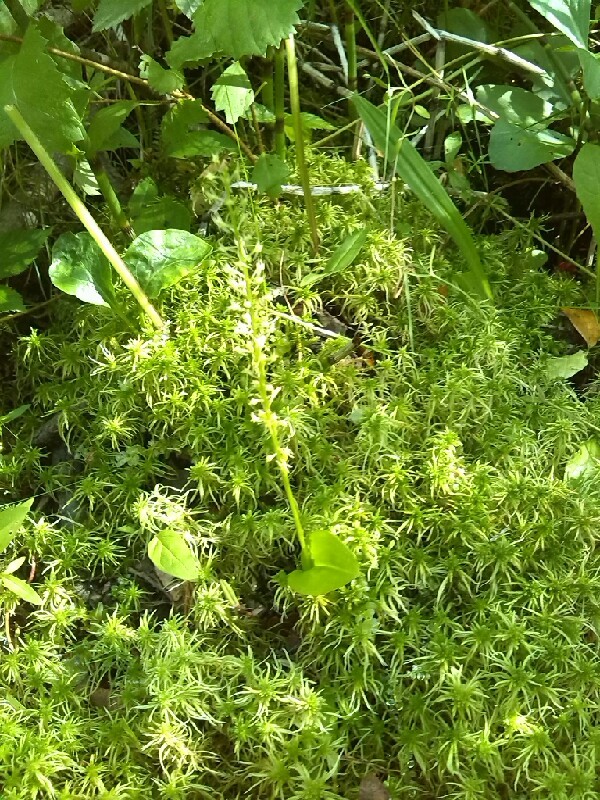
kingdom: Plantae
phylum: Tracheophyta
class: Liliopsida
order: Asparagales
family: Orchidaceae
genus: Malaxis
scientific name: Malaxis monophyllos
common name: White adder's-mouth
